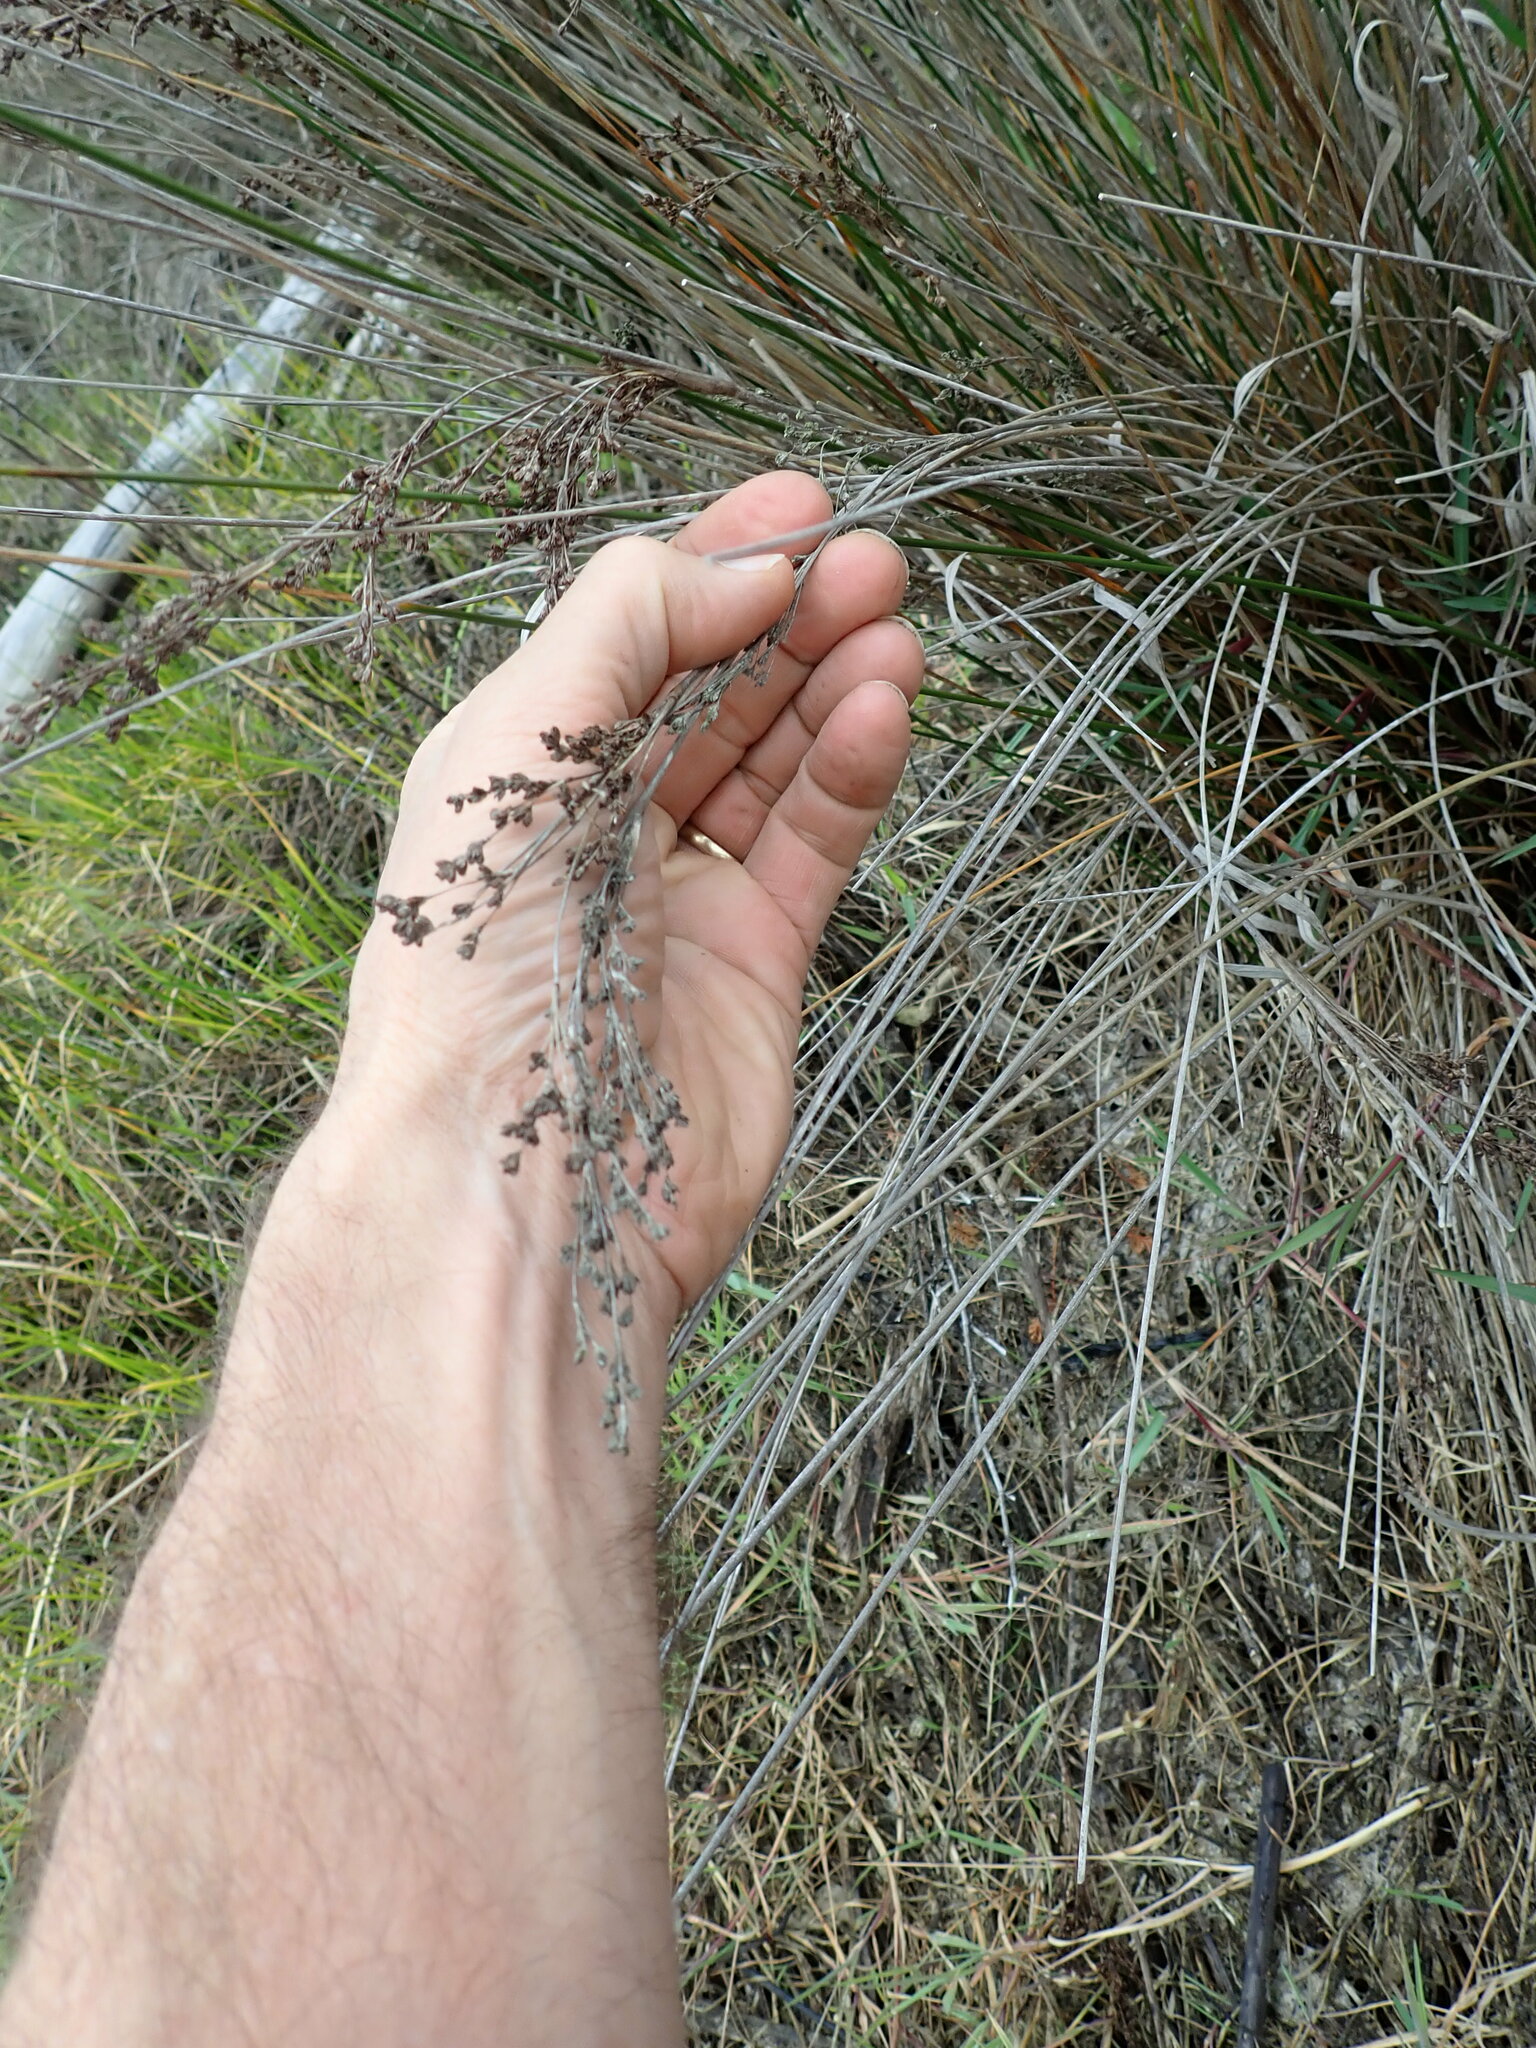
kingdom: Plantae
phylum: Tracheophyta
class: Liliopsida
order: Poales
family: Juncaceae
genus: Juncus
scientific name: Juncus kraussii
